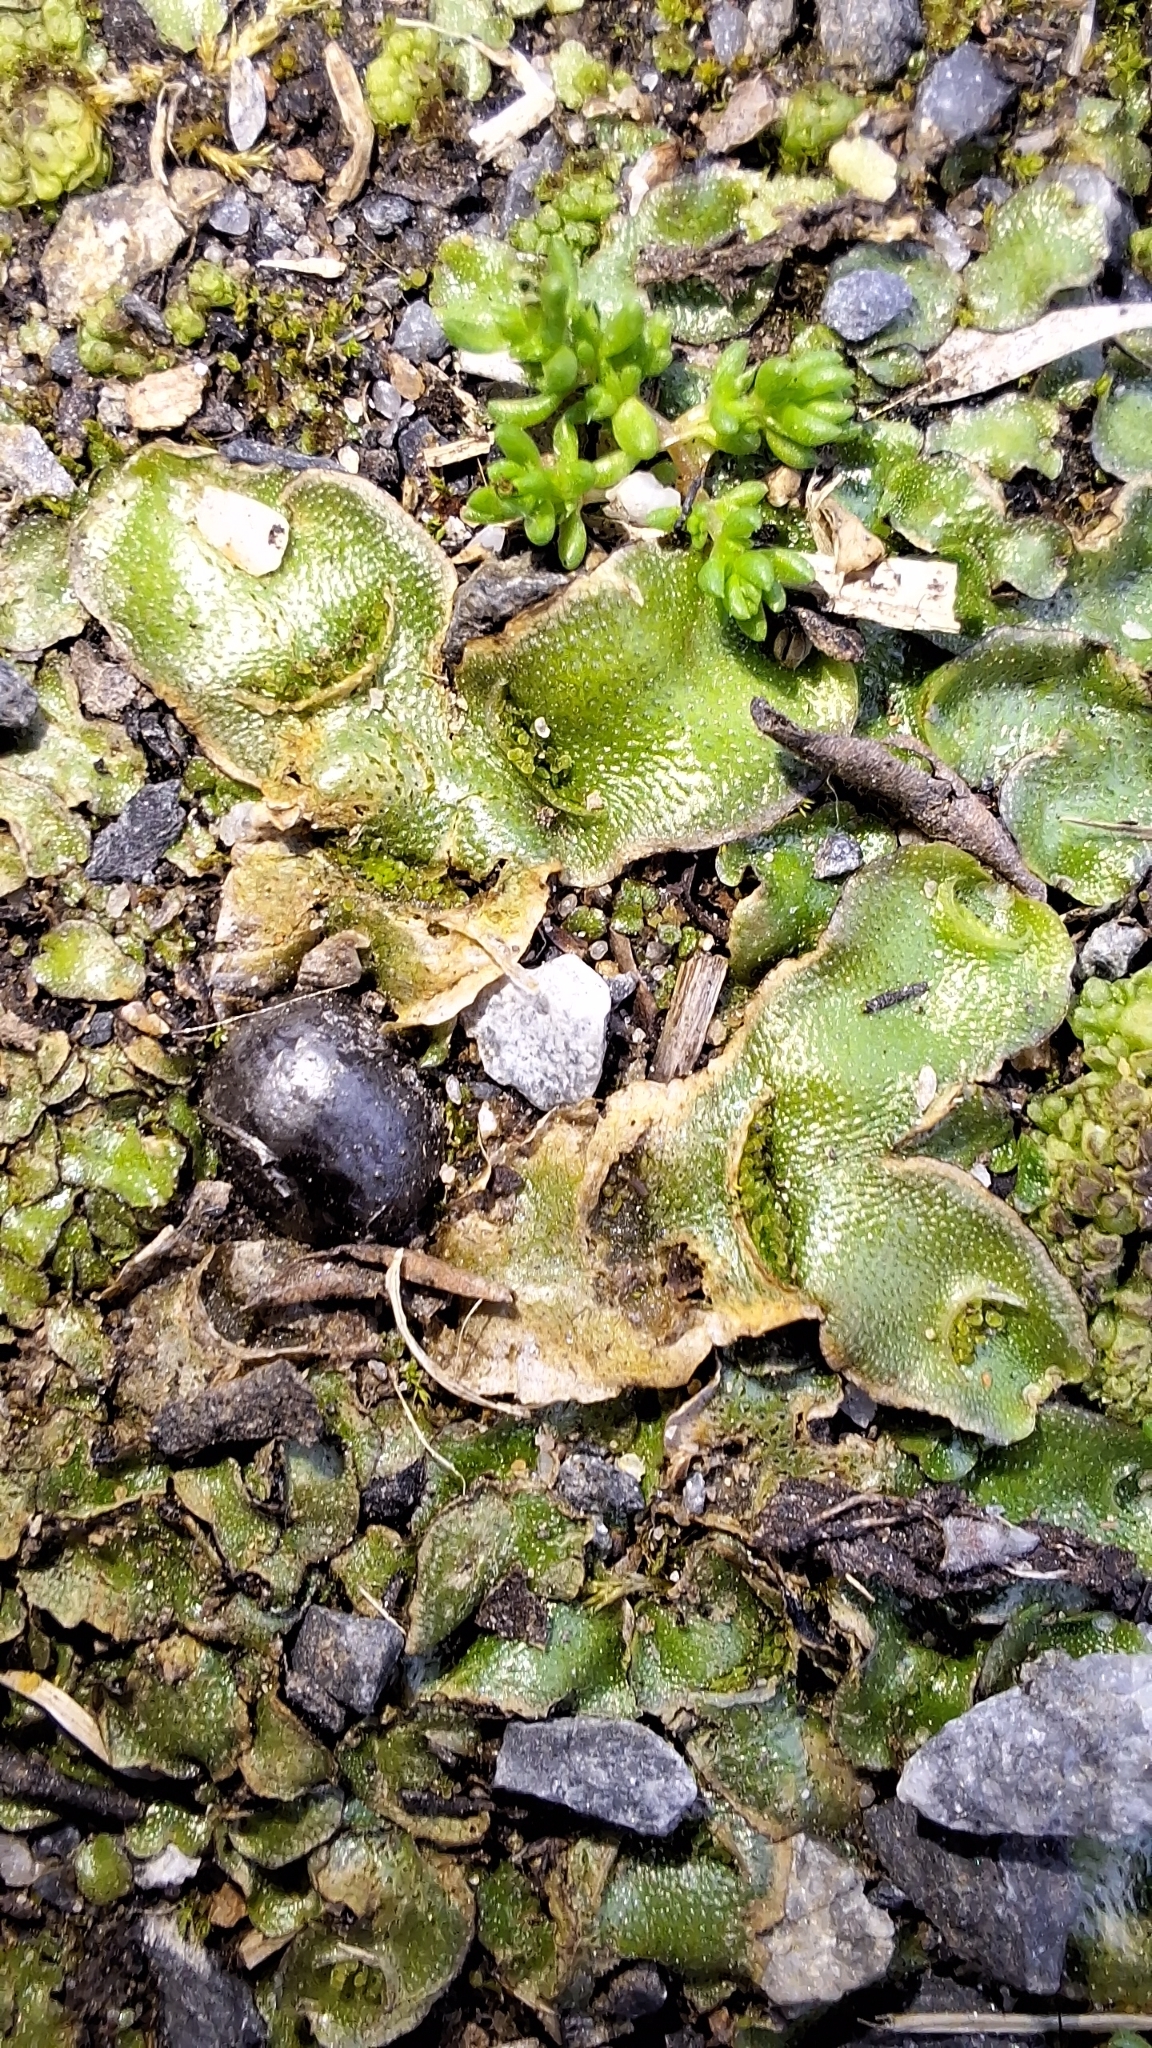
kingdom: Plantae
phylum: Marchantiophyta
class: Marchantiopsida
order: Lunulariales
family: Lunulariaceae
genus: Lunularia
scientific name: Lunularia cruciata
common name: Crescent-cup liverwort
